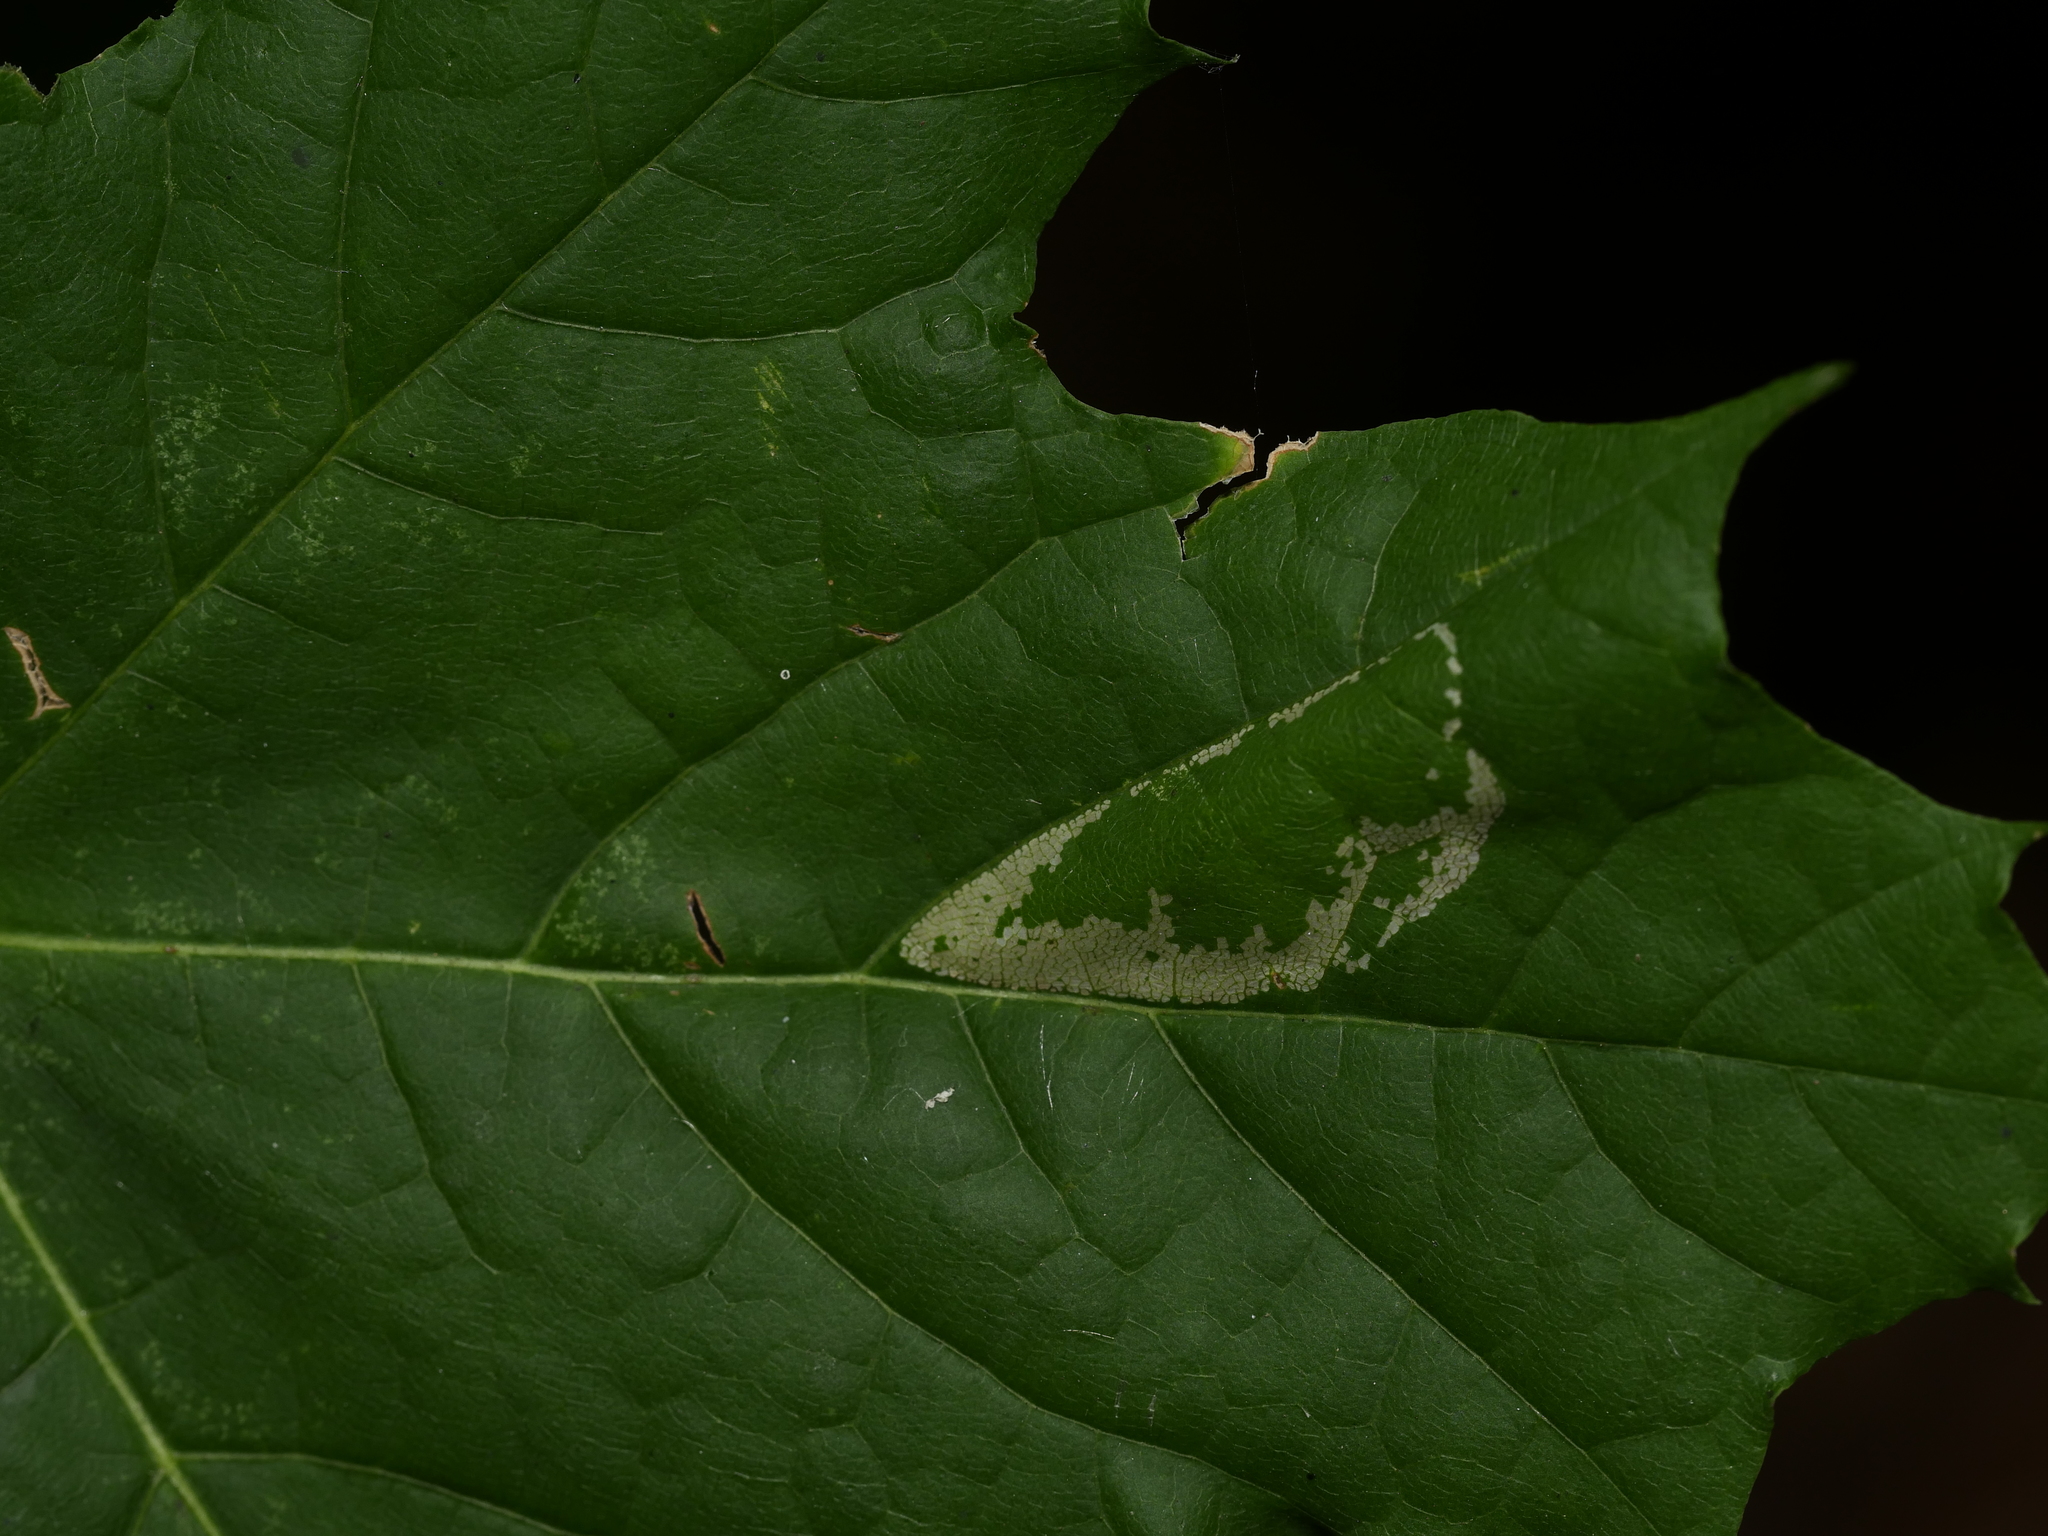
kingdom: Animalia
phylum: Arthropoda
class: Insecta
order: Lepidoptera
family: Gracillariidae
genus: Phyllonorycter
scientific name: Phyllonorycter joannisi
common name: White-bodied midget
